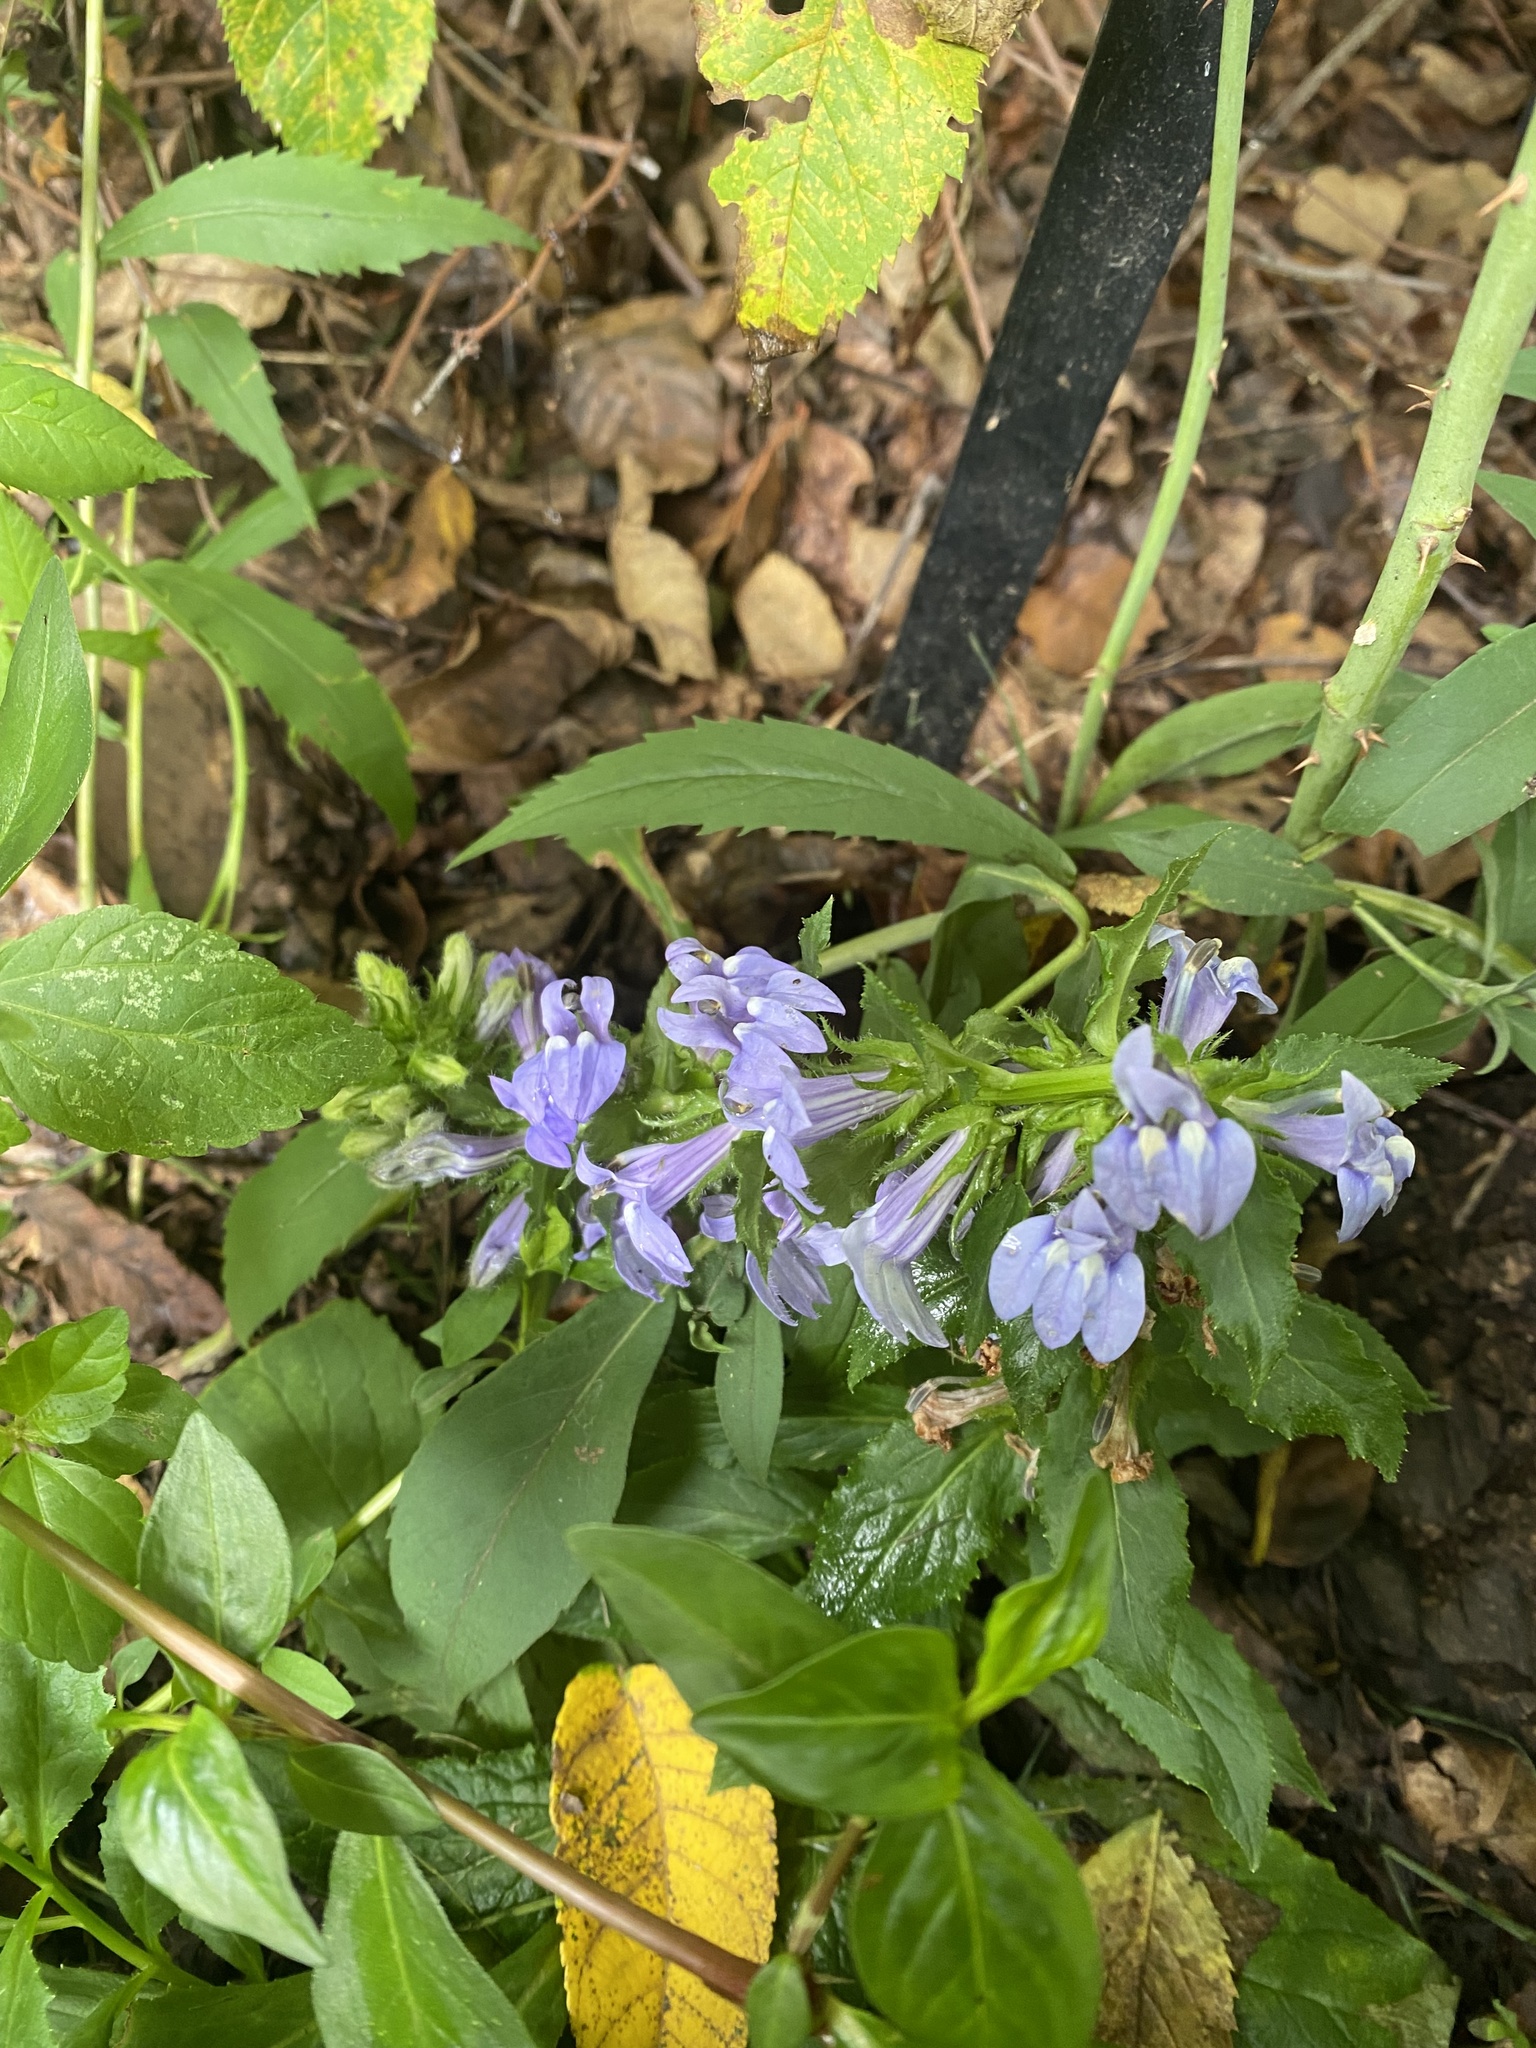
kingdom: Plantae
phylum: Tracheophyta
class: Magnoliopsida
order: Asterales
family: Campanulaceae
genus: Lobelia
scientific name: Lobelia siphilitica
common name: Great lobelia
